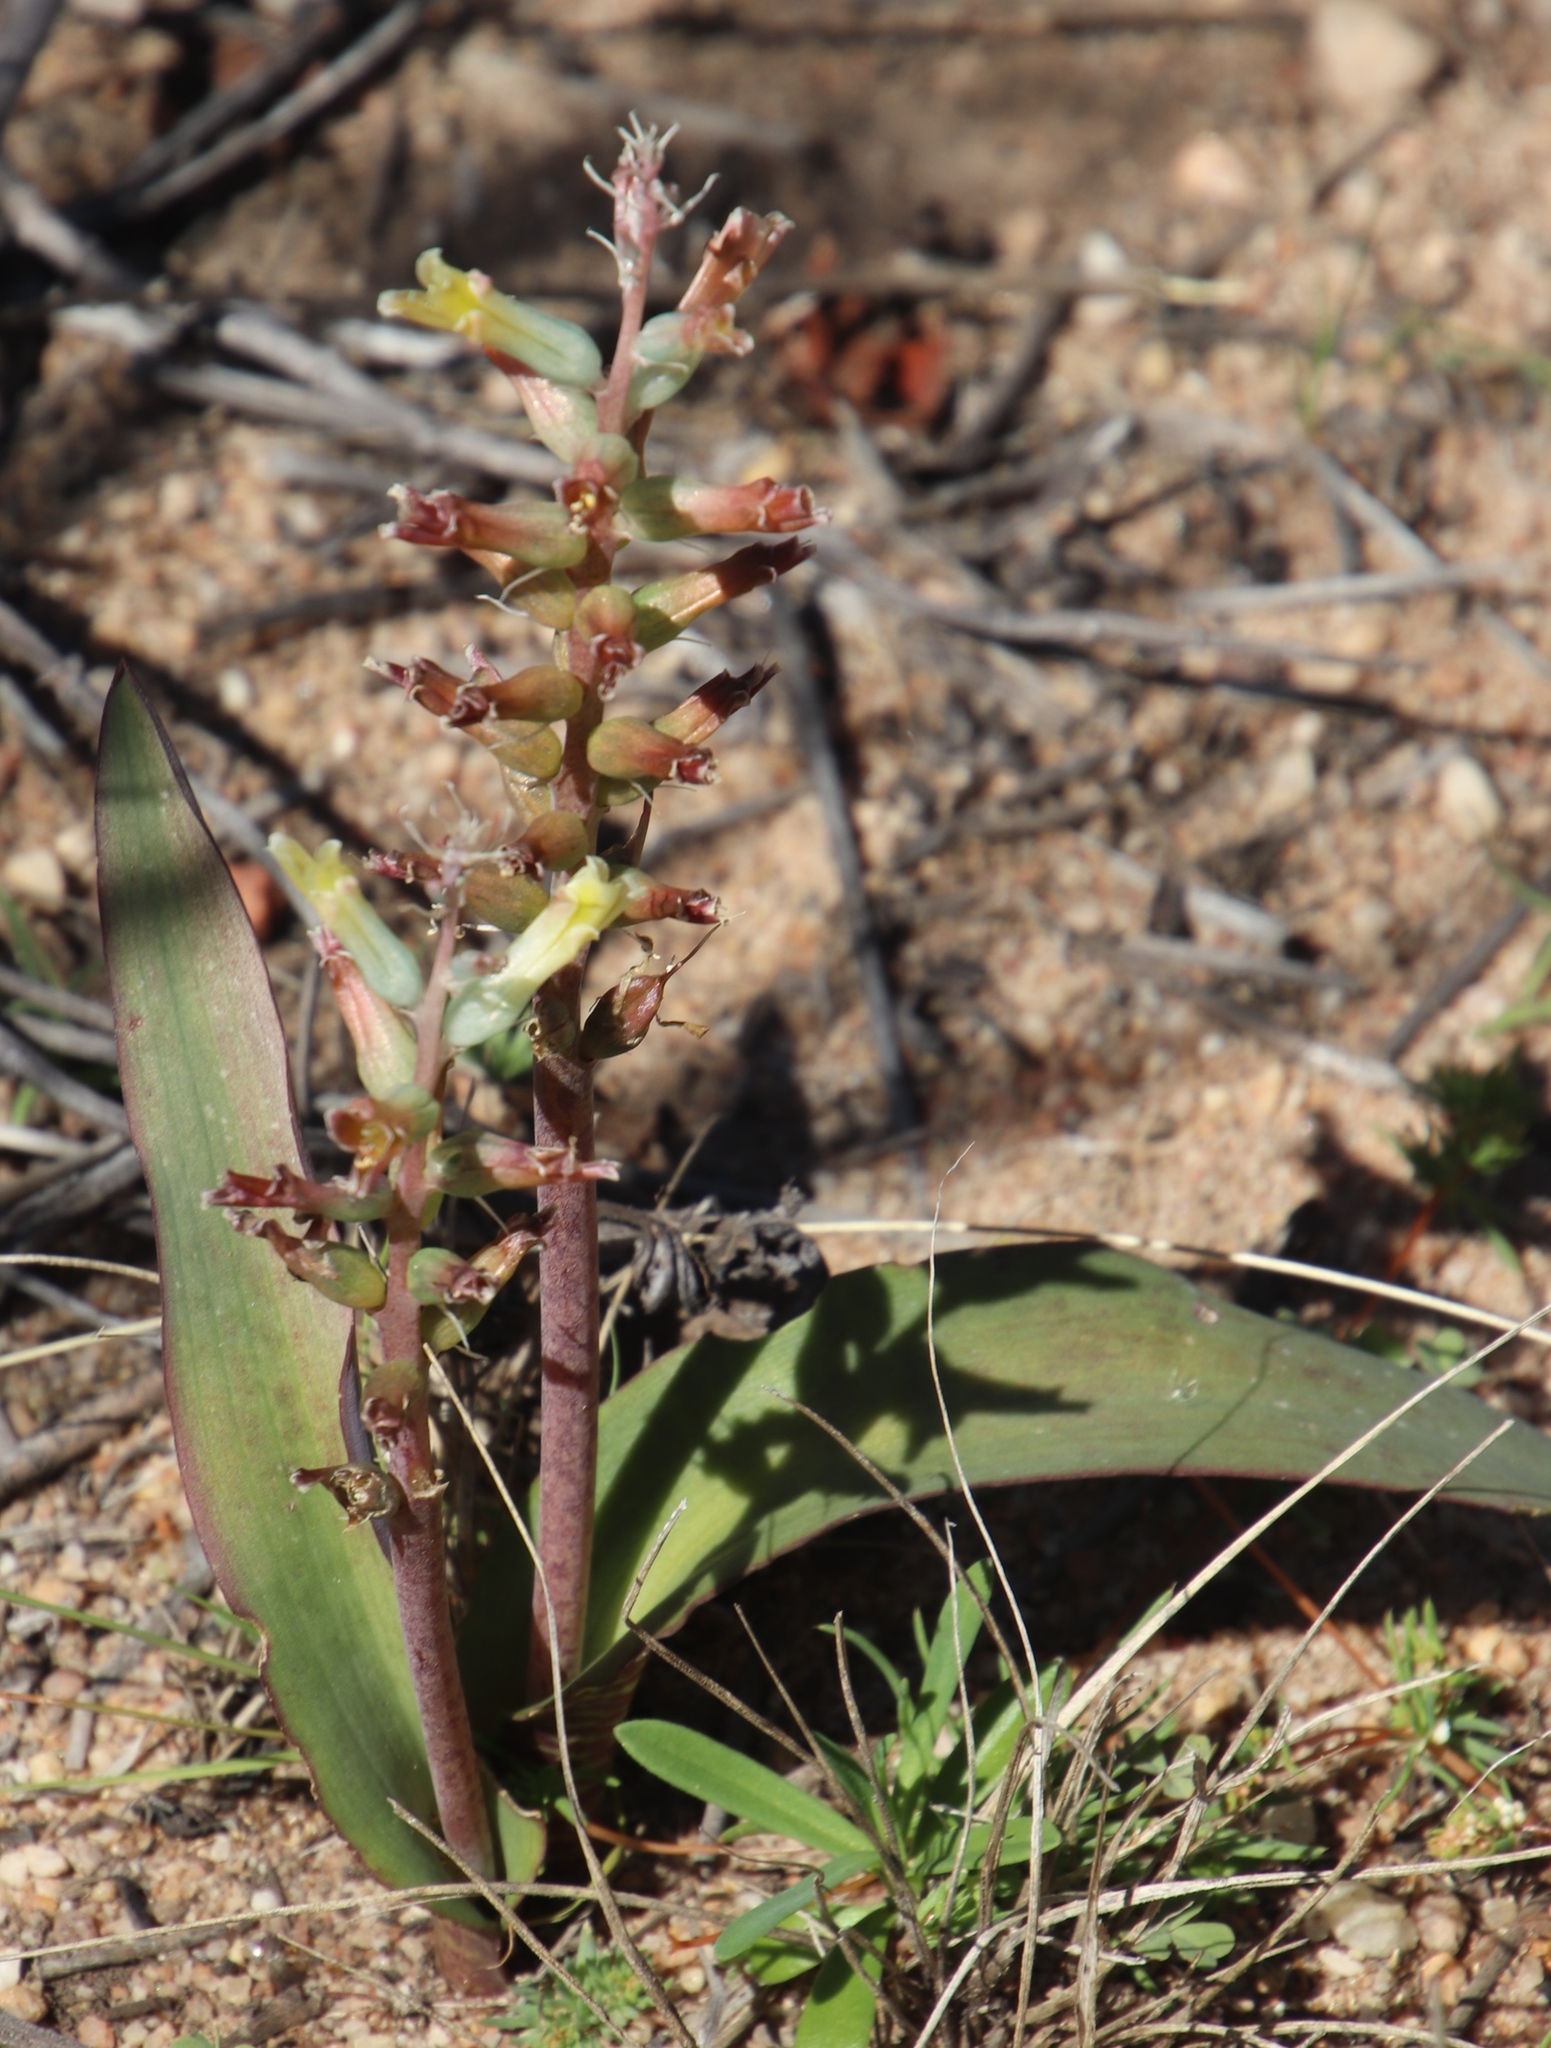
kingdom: Plantae
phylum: Tracheophyta
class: Liliopsida
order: Asparagales
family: Asparagaceae
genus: Lachenalia
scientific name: Lachenalia orchioides
